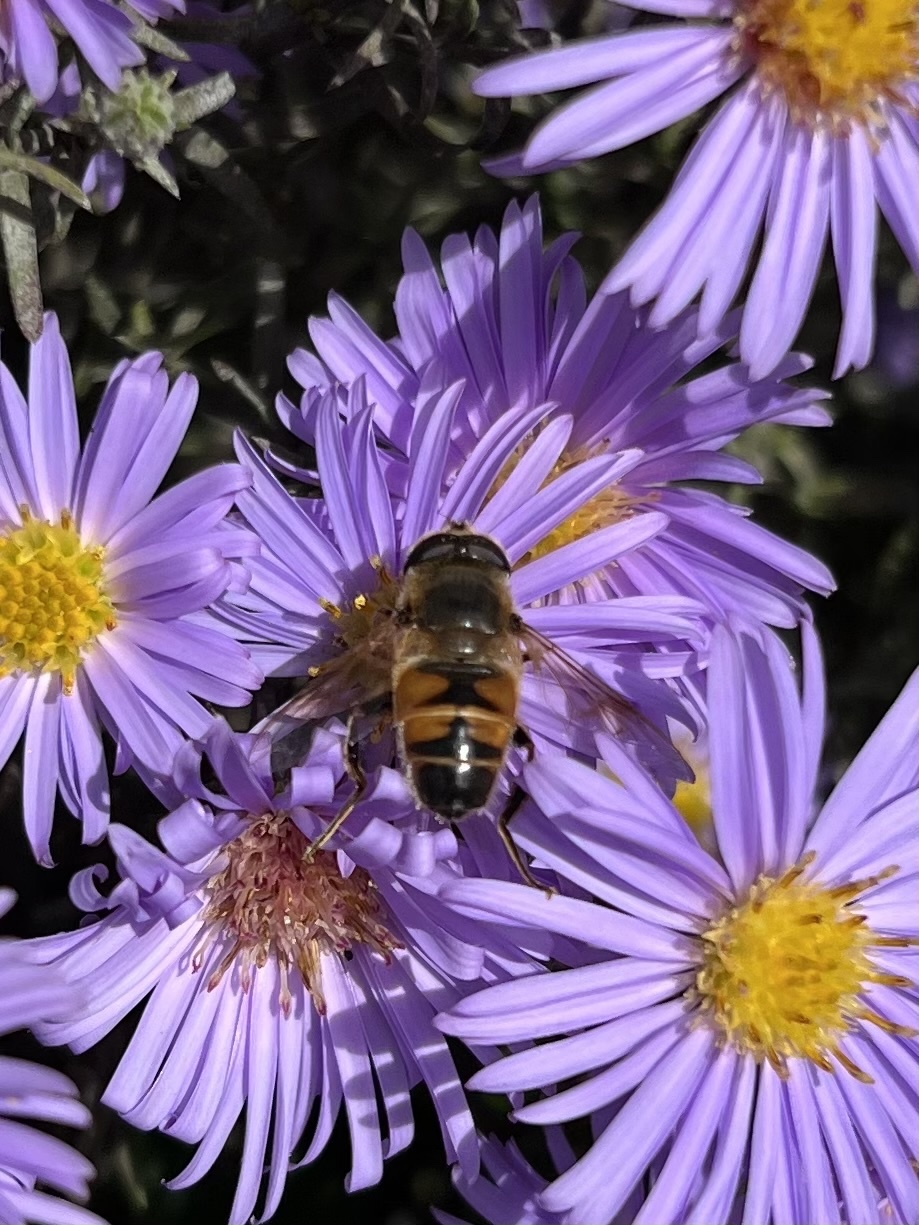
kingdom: Animalia
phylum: Arthropoda
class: Insecta
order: Diptera
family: Syrphidae
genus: Eristalis
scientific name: Eristalis tenax
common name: Drone fly
